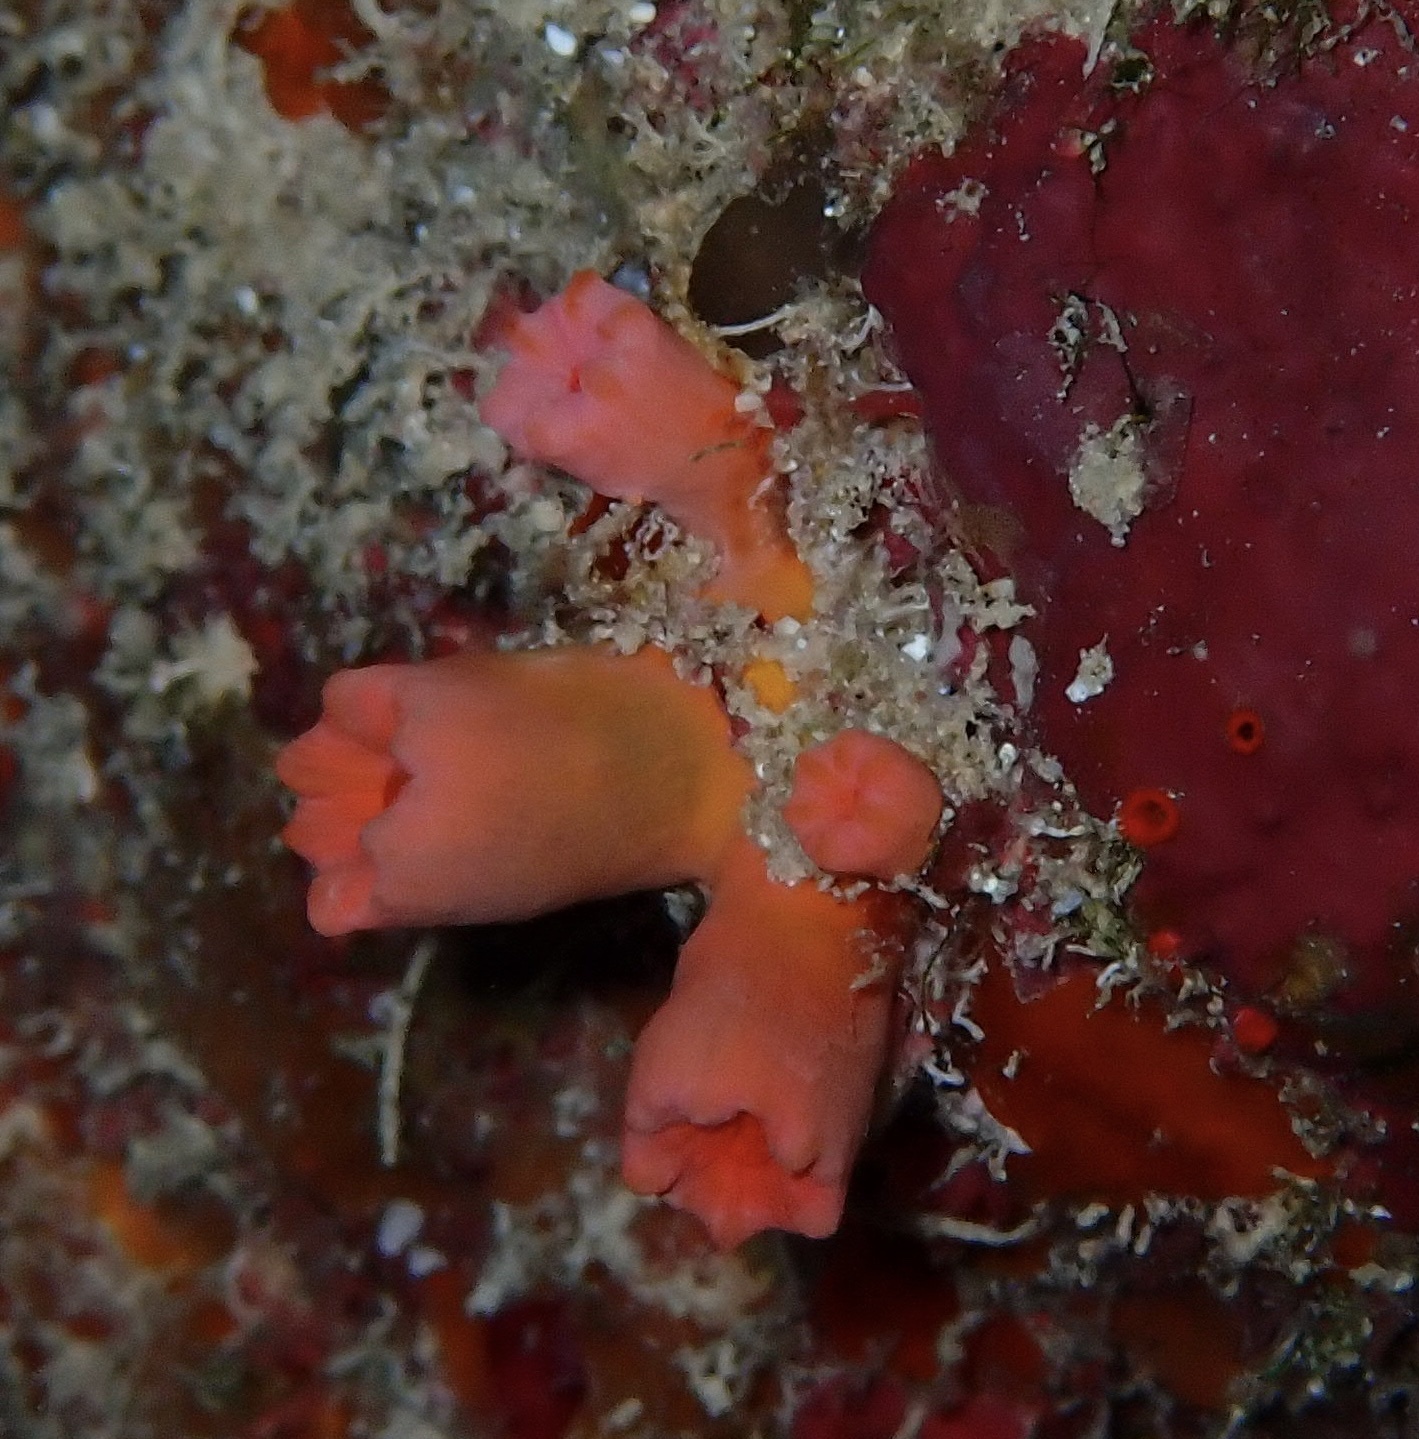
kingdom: Animalia
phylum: Cnidaria
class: Anthozoa
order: Scleractinia
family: Dendrophylliidae
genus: Cladopsammia
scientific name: Cladopsammia gracilis
